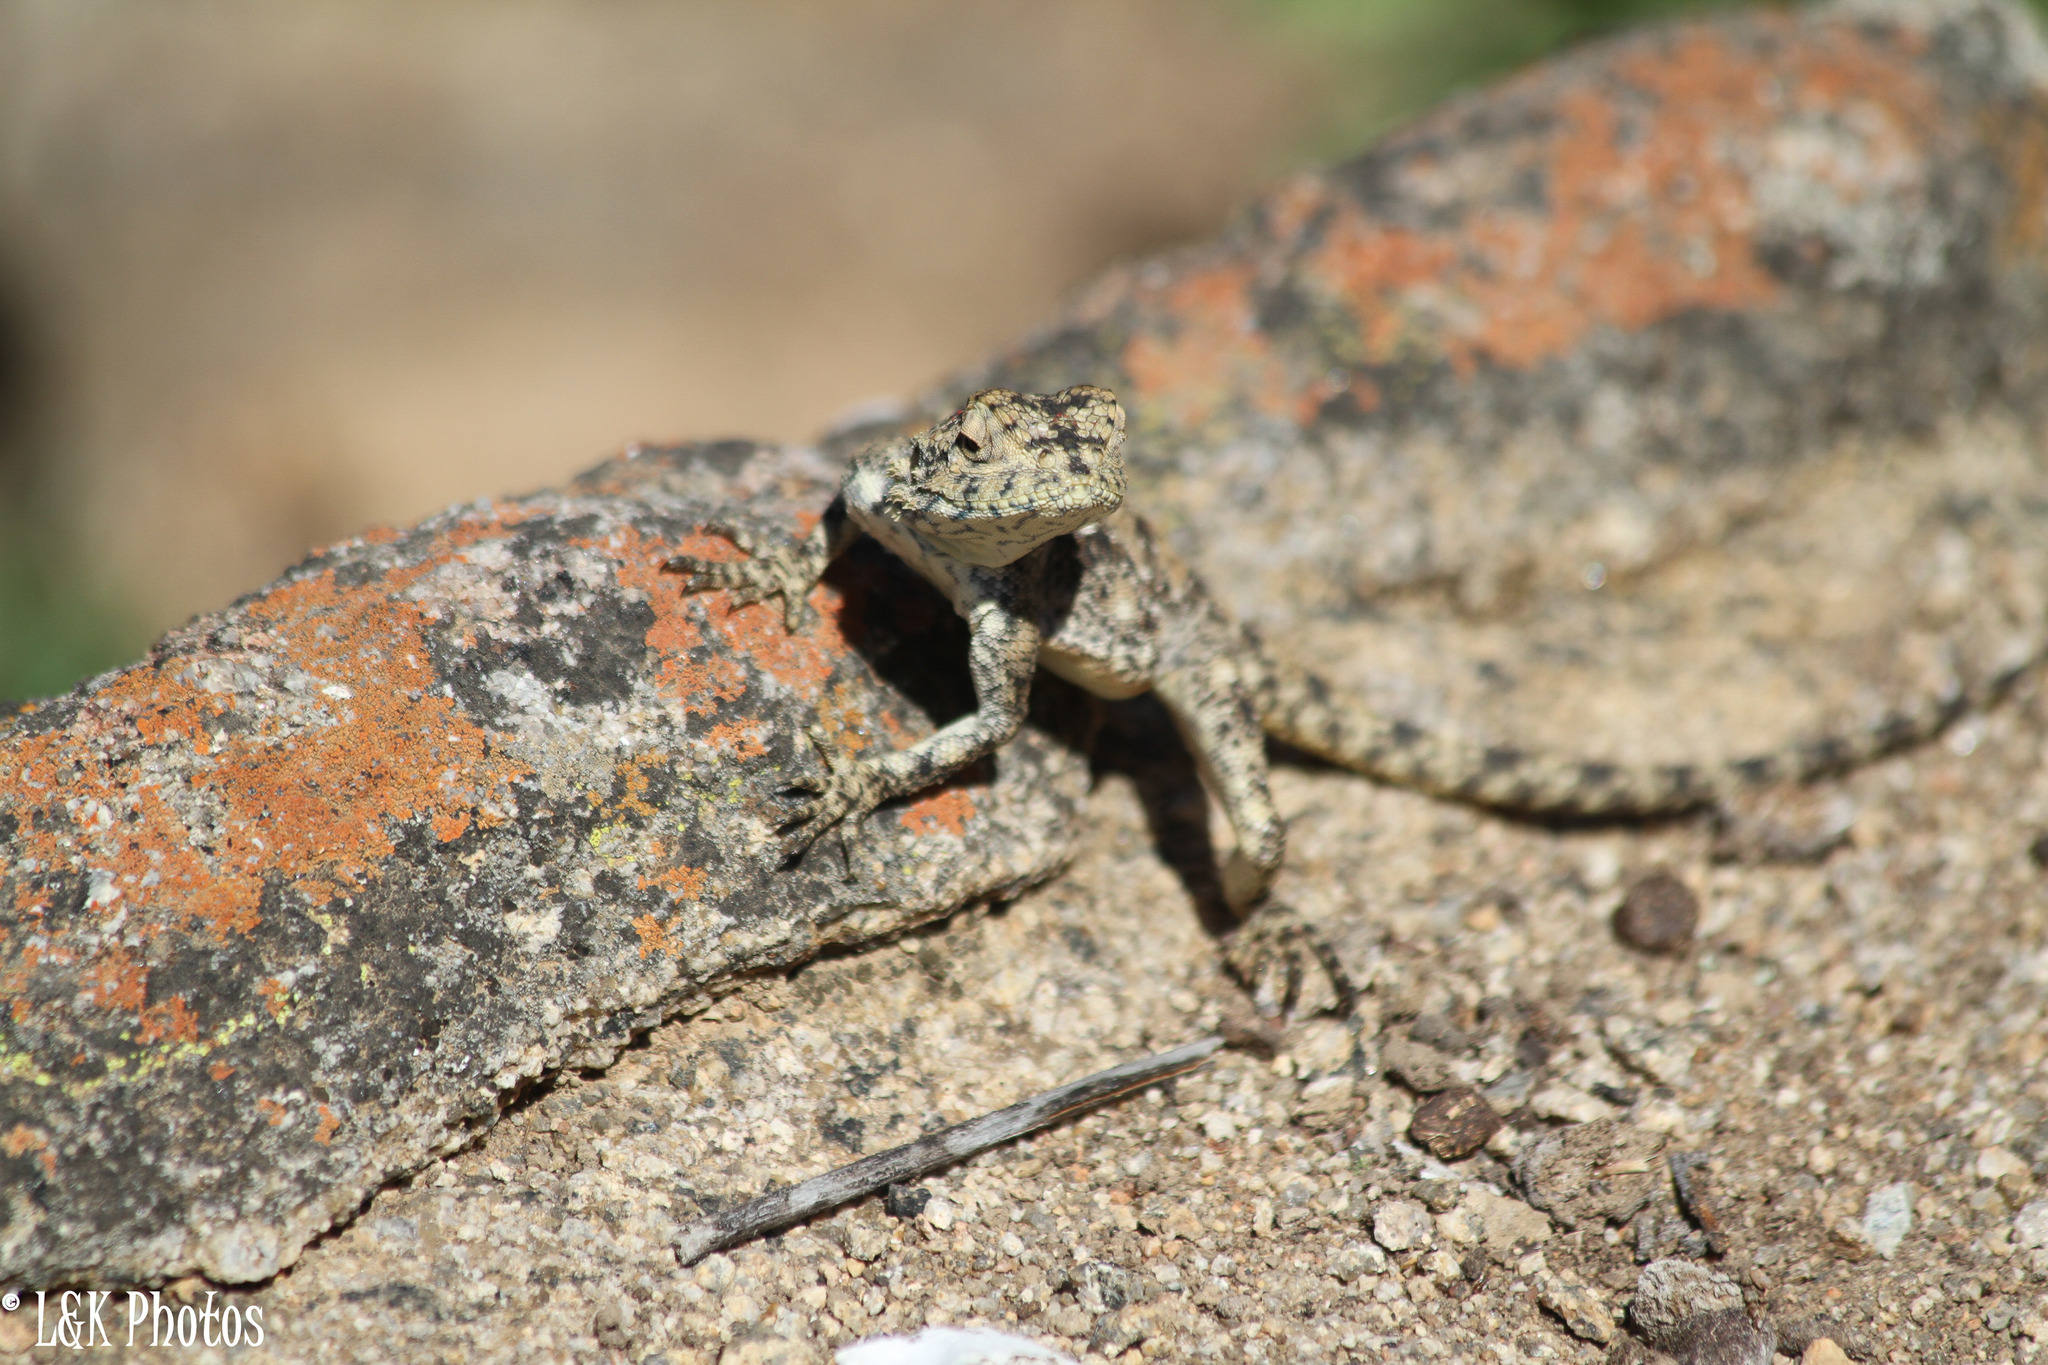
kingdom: Animalia
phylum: Chordata
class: Squamata
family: Agamidae
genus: Agama
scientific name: Agama atra
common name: Southern african rock agama
